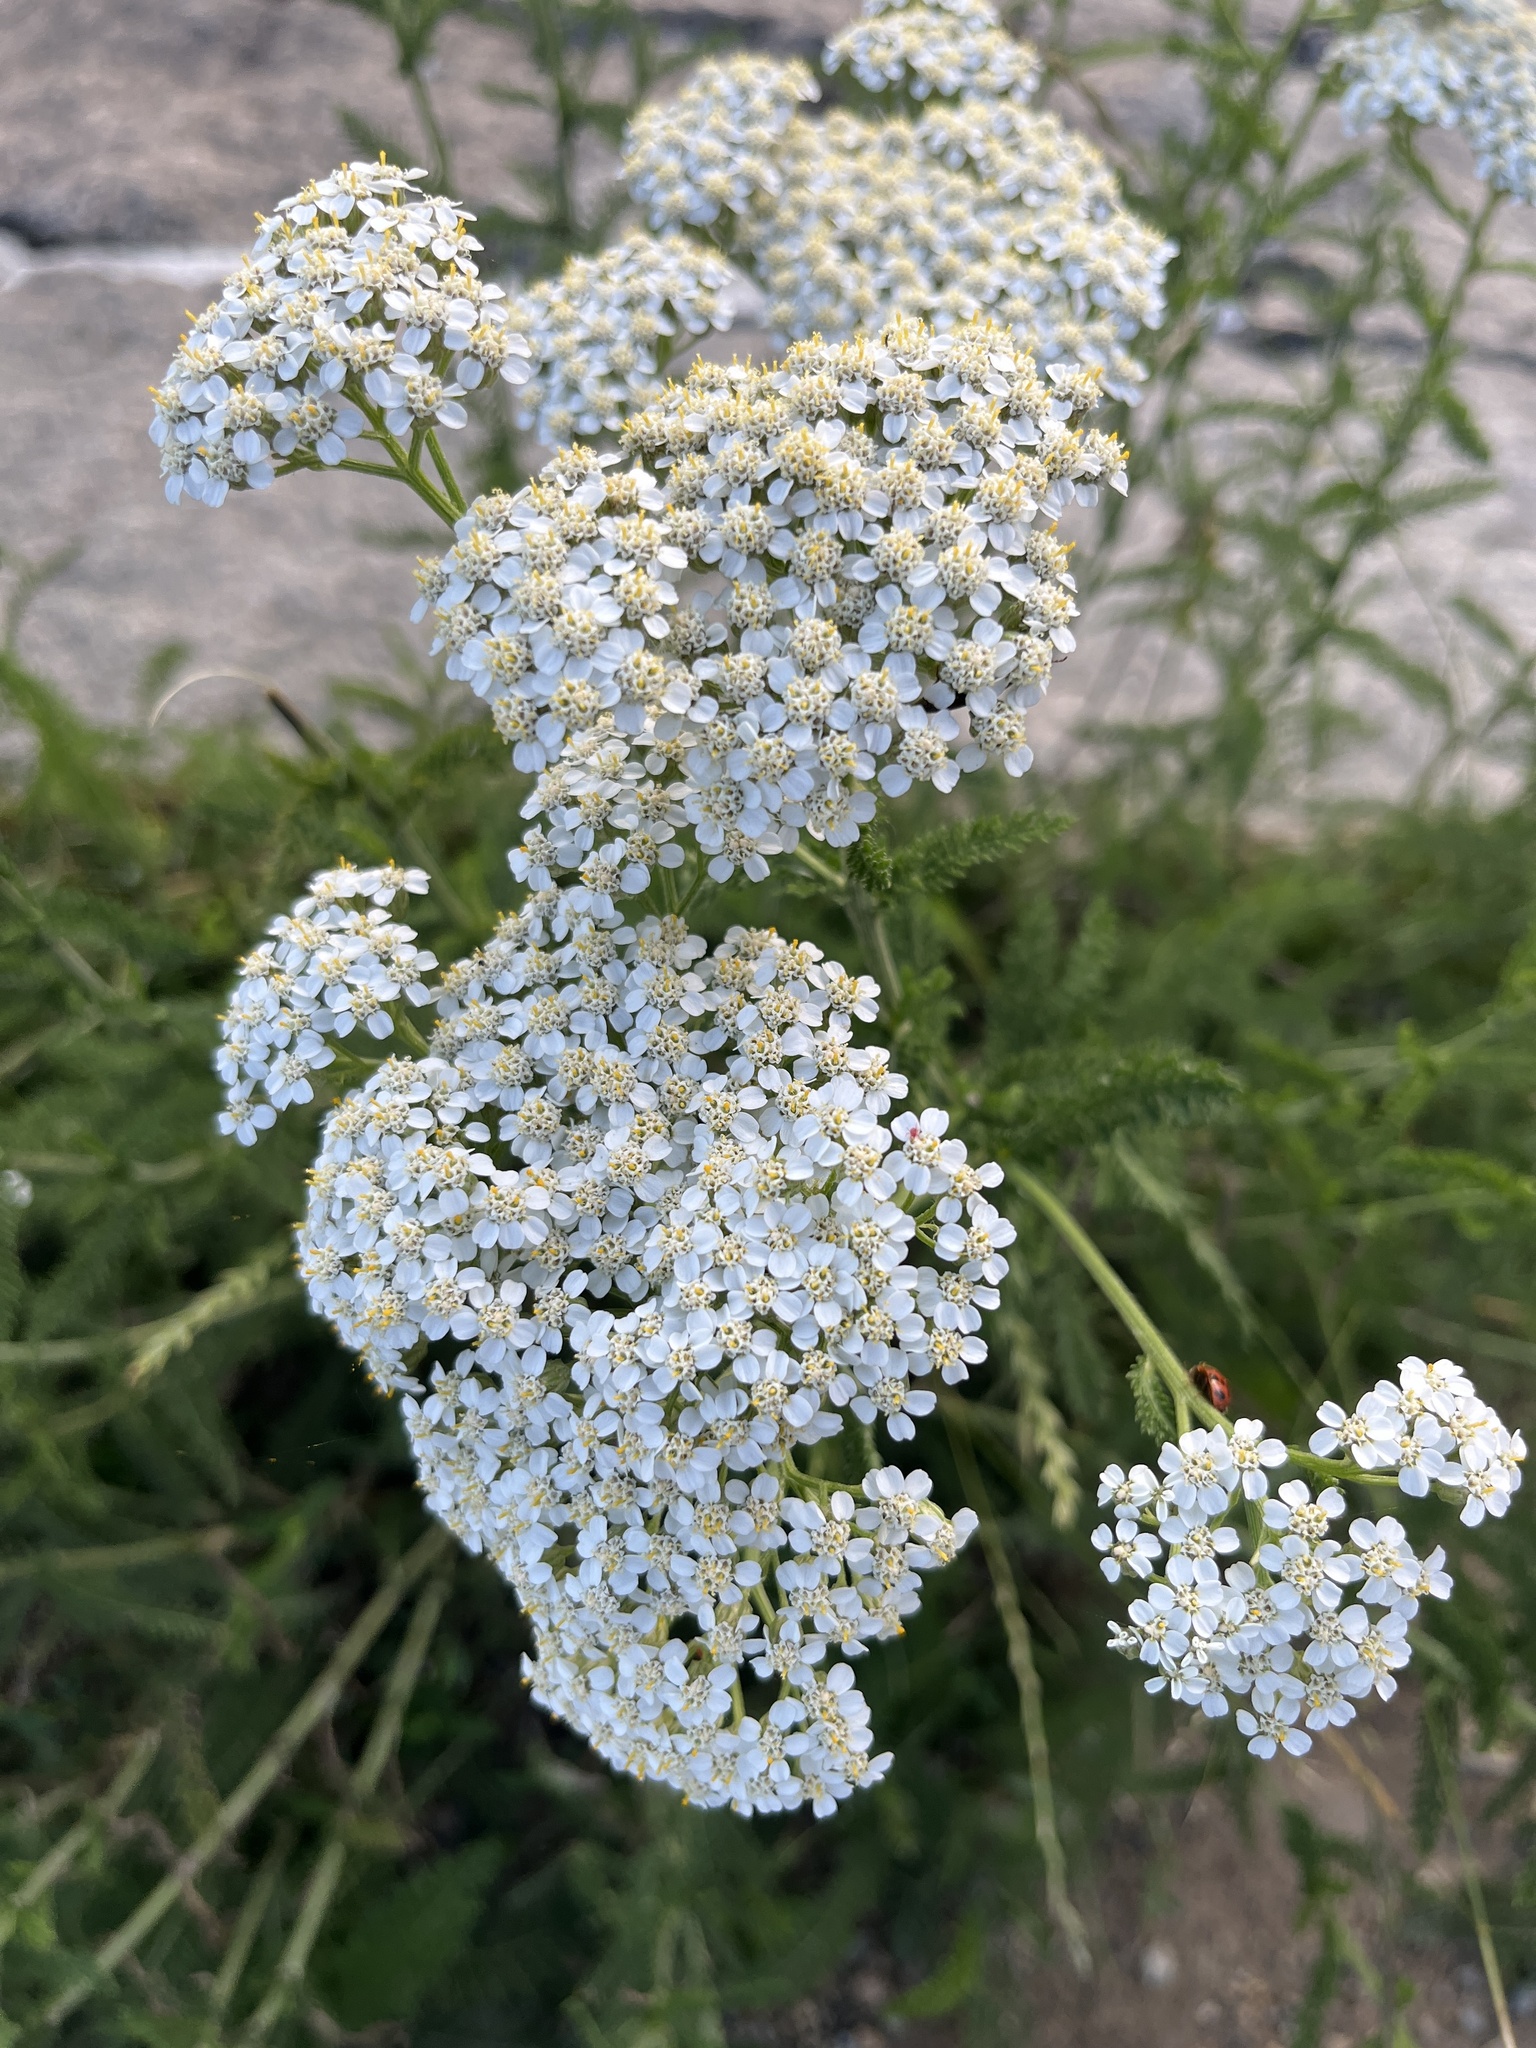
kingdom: Plantae
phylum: Tracheophyta
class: Magnoliopsida
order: Asterales
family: Asteraceae
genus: Achillea
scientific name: Achillea millefolium
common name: Yarrow
